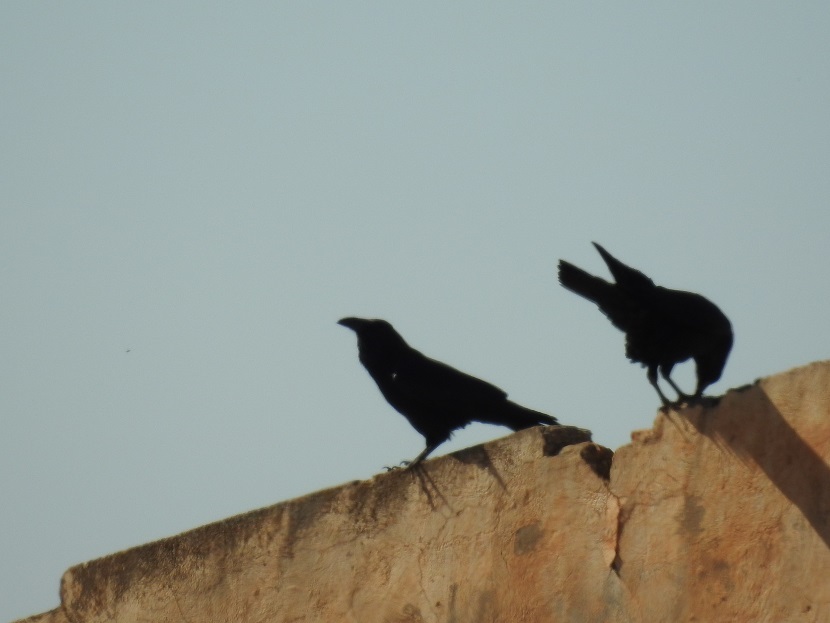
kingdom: Animalia
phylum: Chordata
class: Aves
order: Passeriformes
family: Corvidae
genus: Corvus
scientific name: Corvus corax
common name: Common raven
